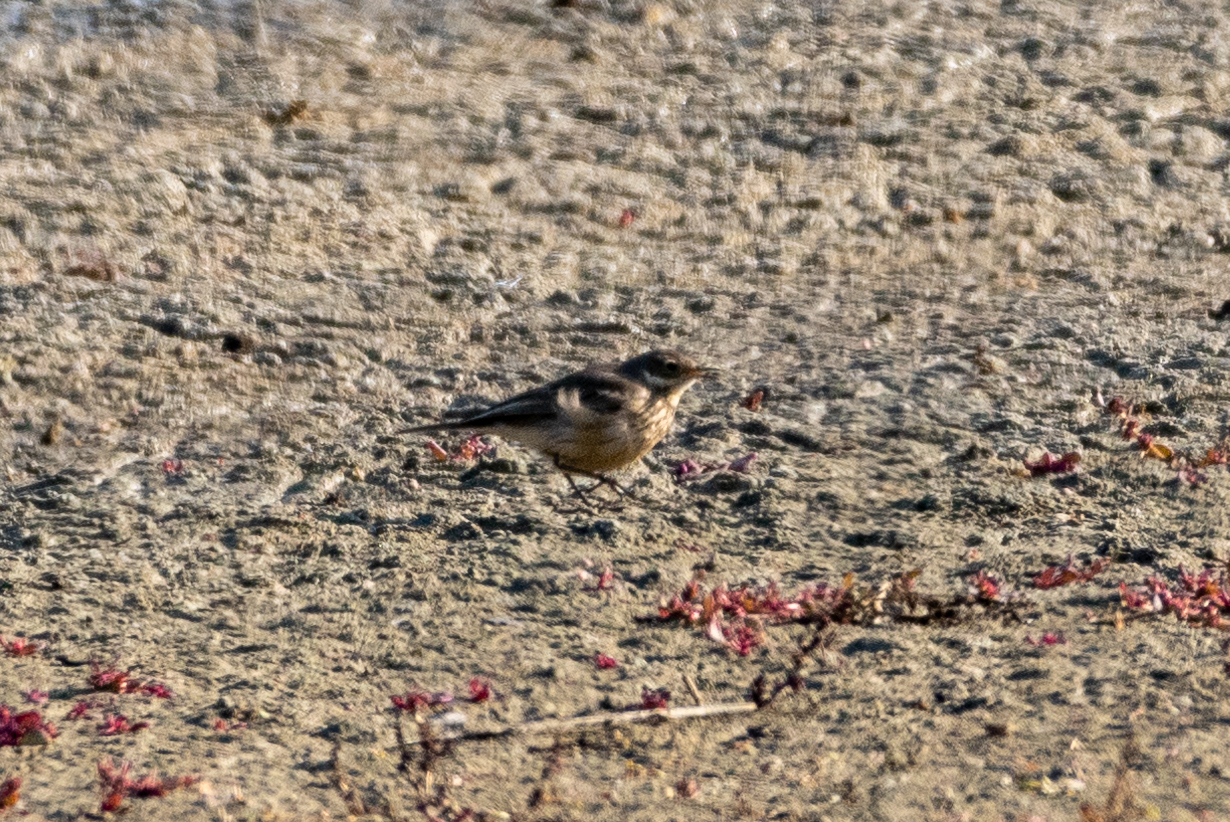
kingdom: Animalia
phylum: Chordata
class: Aves
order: Passeriformes
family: Motacillidae
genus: Anthus
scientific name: Anthus rubescens
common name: Buff-bellied pipit
